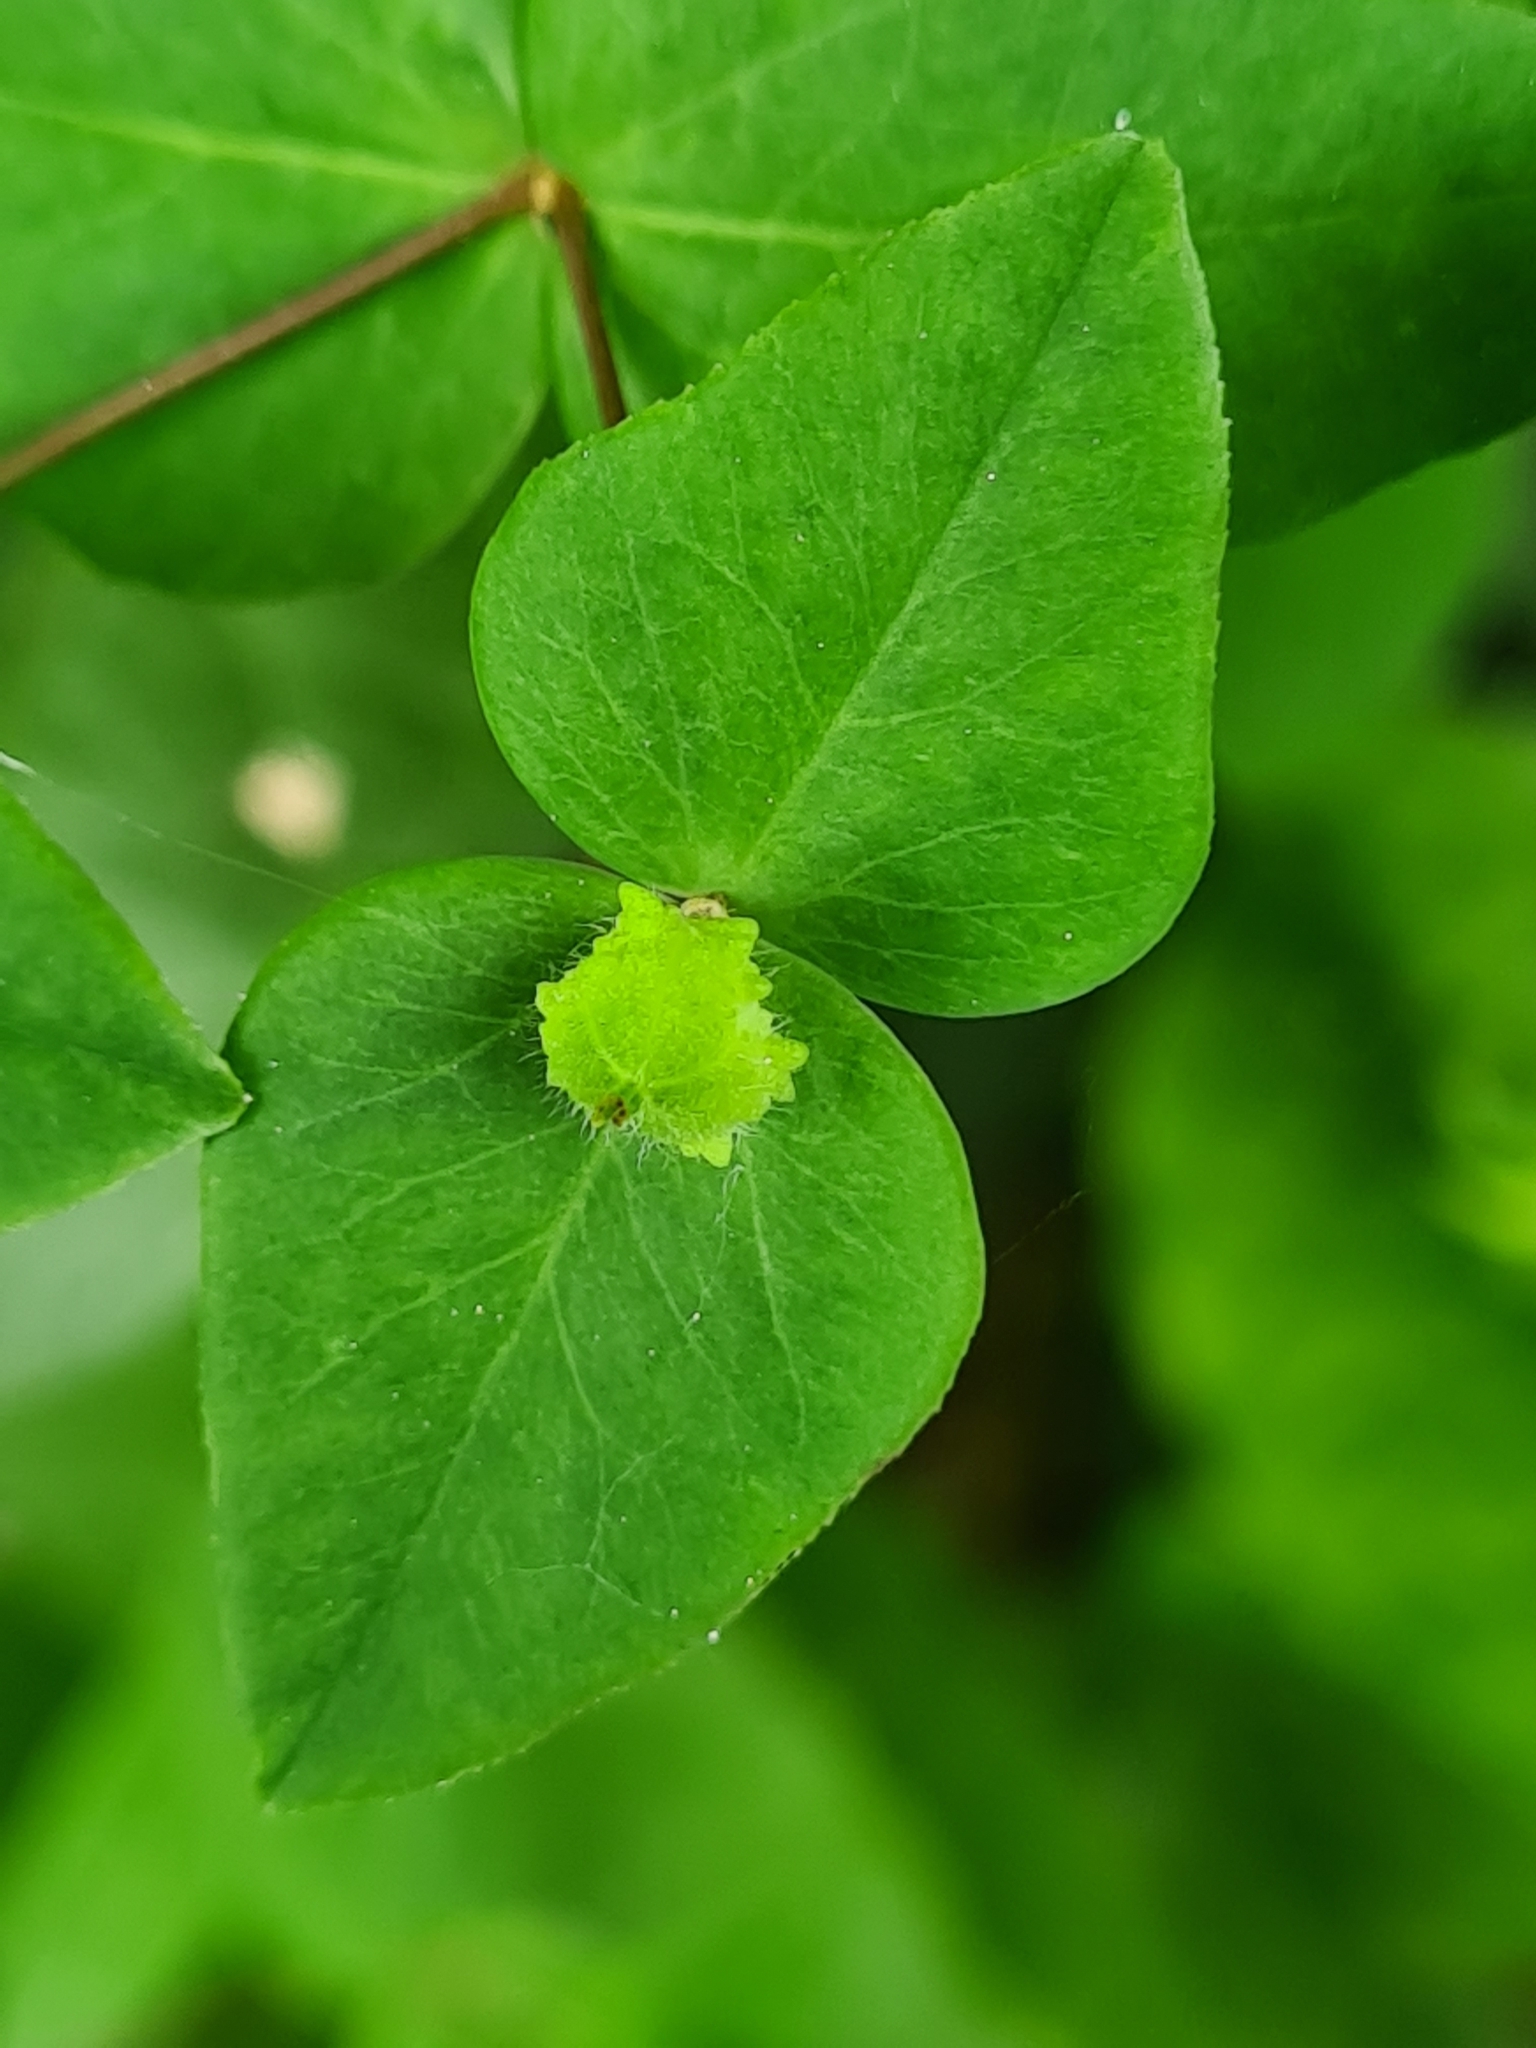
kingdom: Plantae
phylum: Tracheophyta
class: Magnoliopsida
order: Malpighiales
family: Euphorbiaceae
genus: Euphorbia
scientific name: Euphorbia dulcis
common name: Sweet spurge
